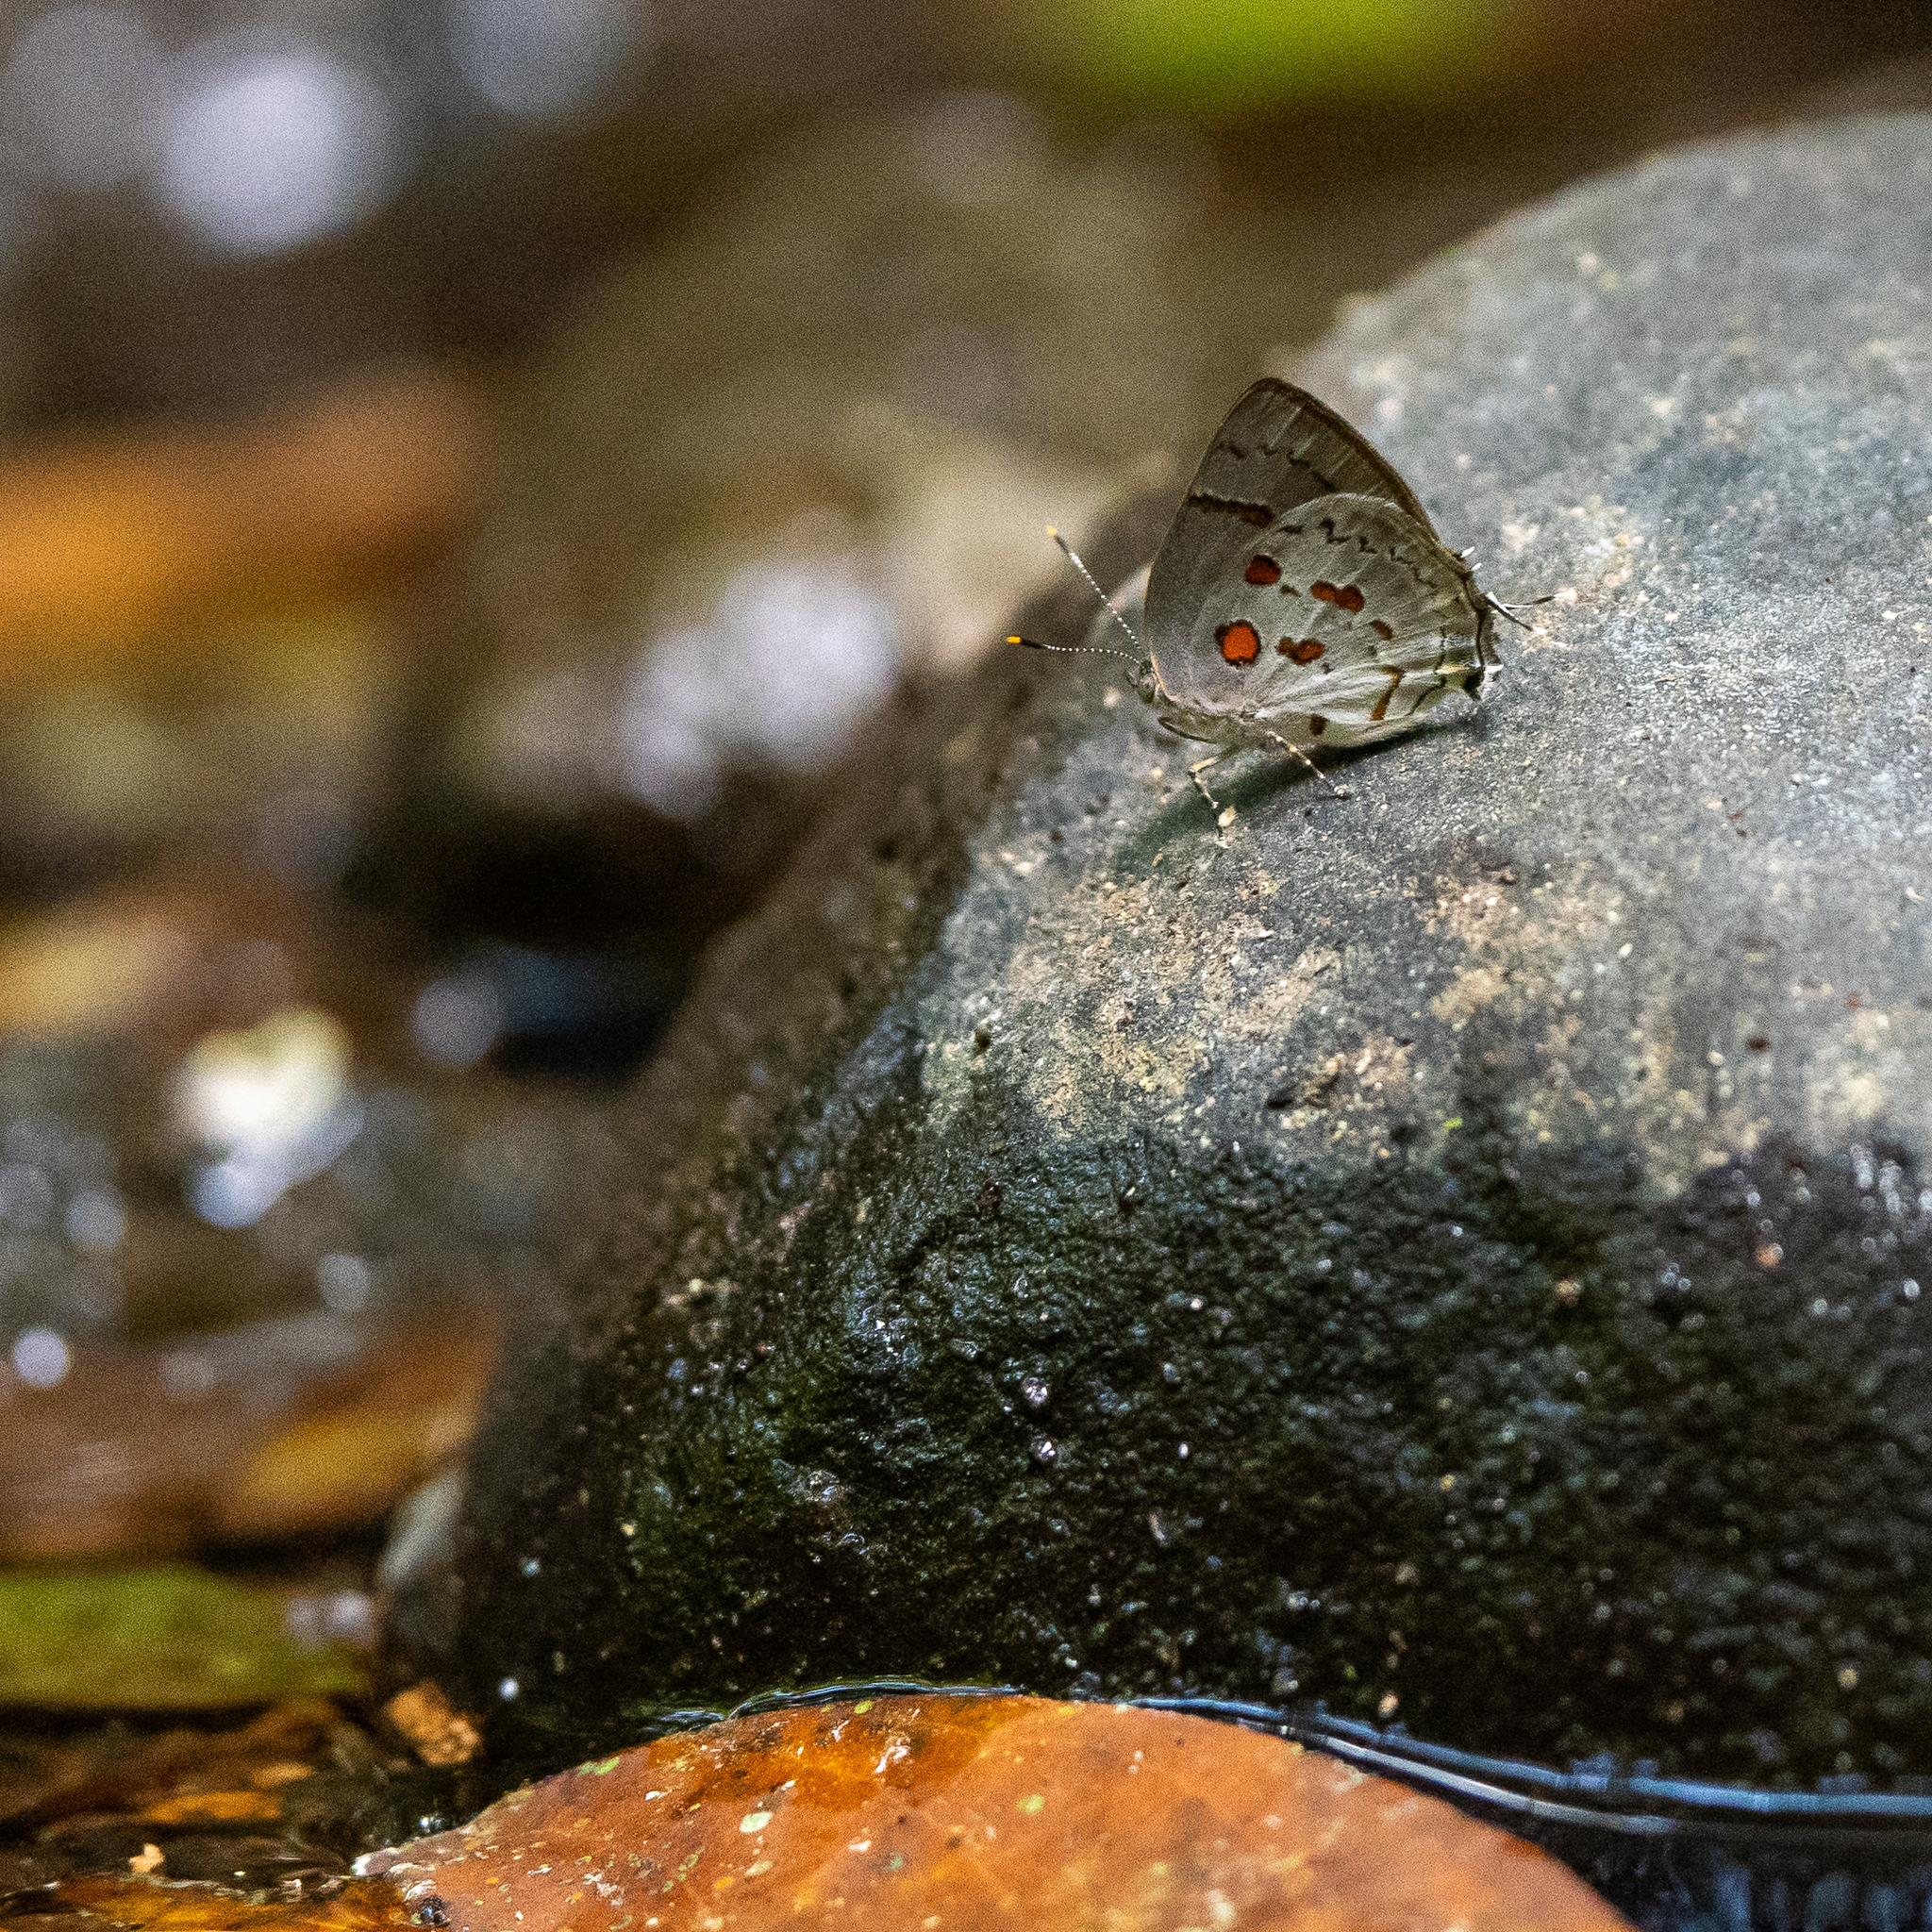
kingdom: Animalia
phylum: Arthropoda
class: Insecta
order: Lepidoptera
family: Lycaenidae
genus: Tmolus
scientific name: Tmolus echion
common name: Red-spotted hairstreak
